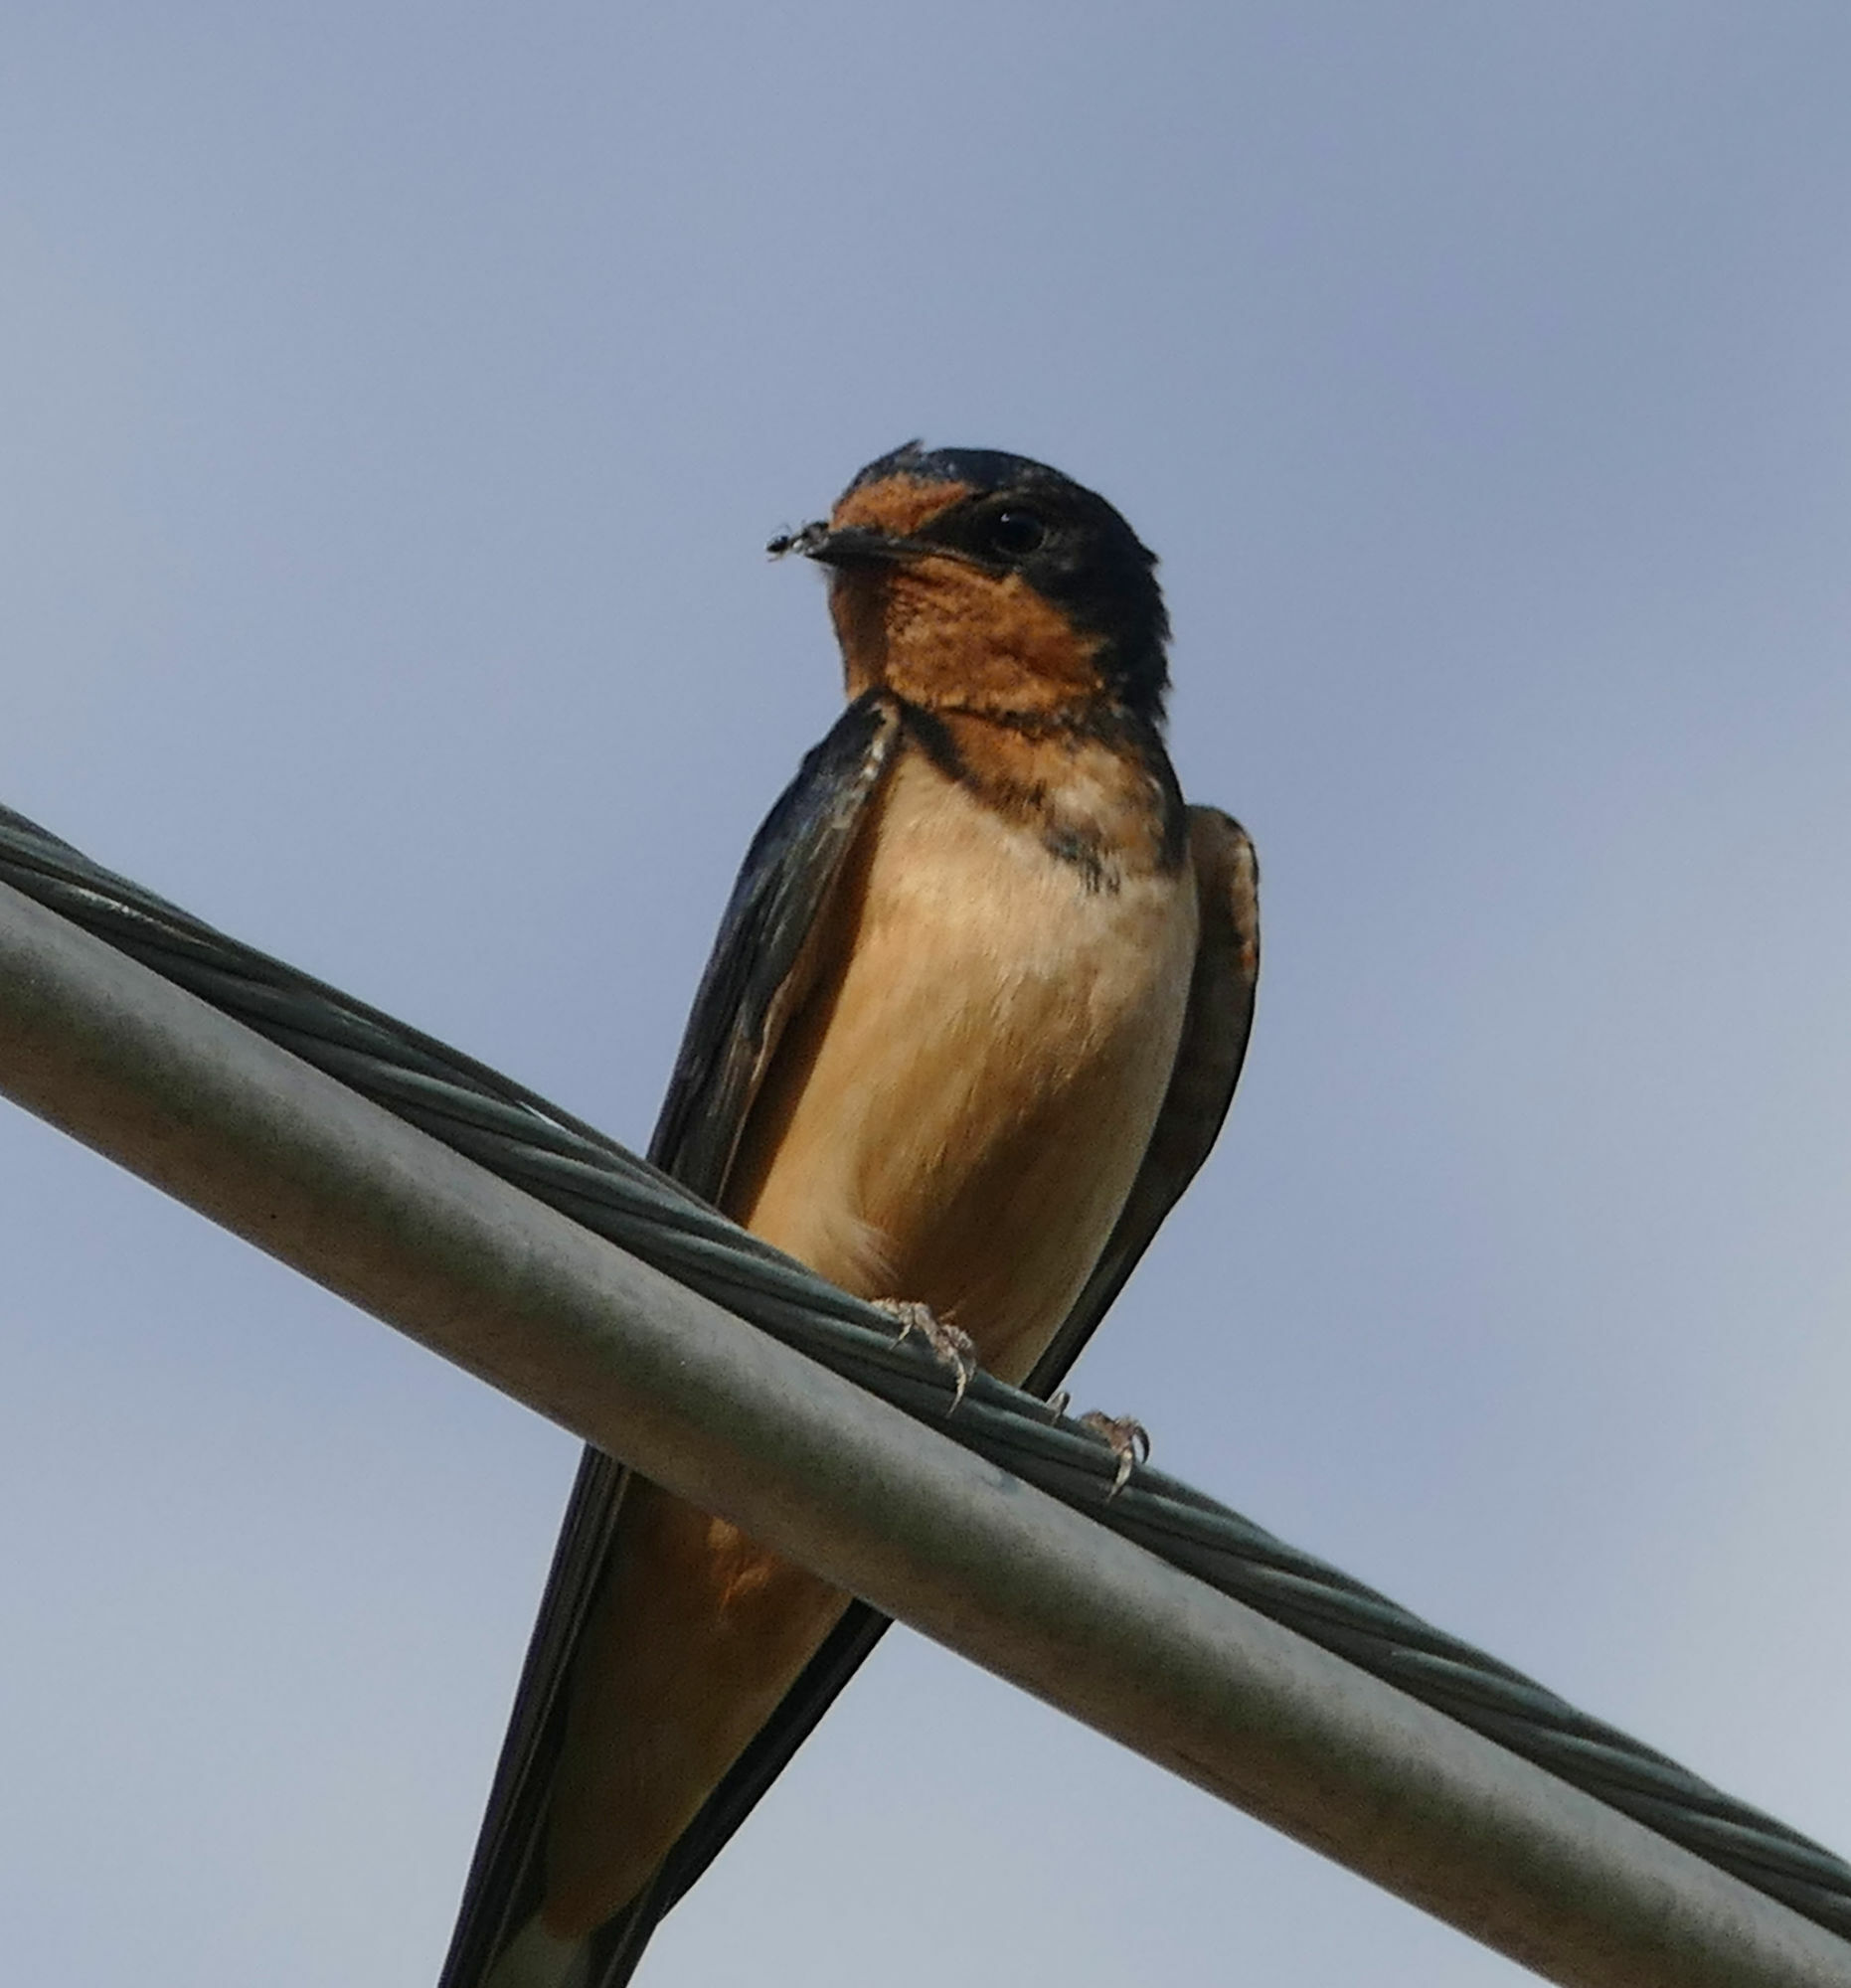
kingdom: Animalia
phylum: Chordata
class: Aves
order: Passeriformes
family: Hirundinidae
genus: Hirundo
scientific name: Hirundo rustica
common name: Barn swallow
